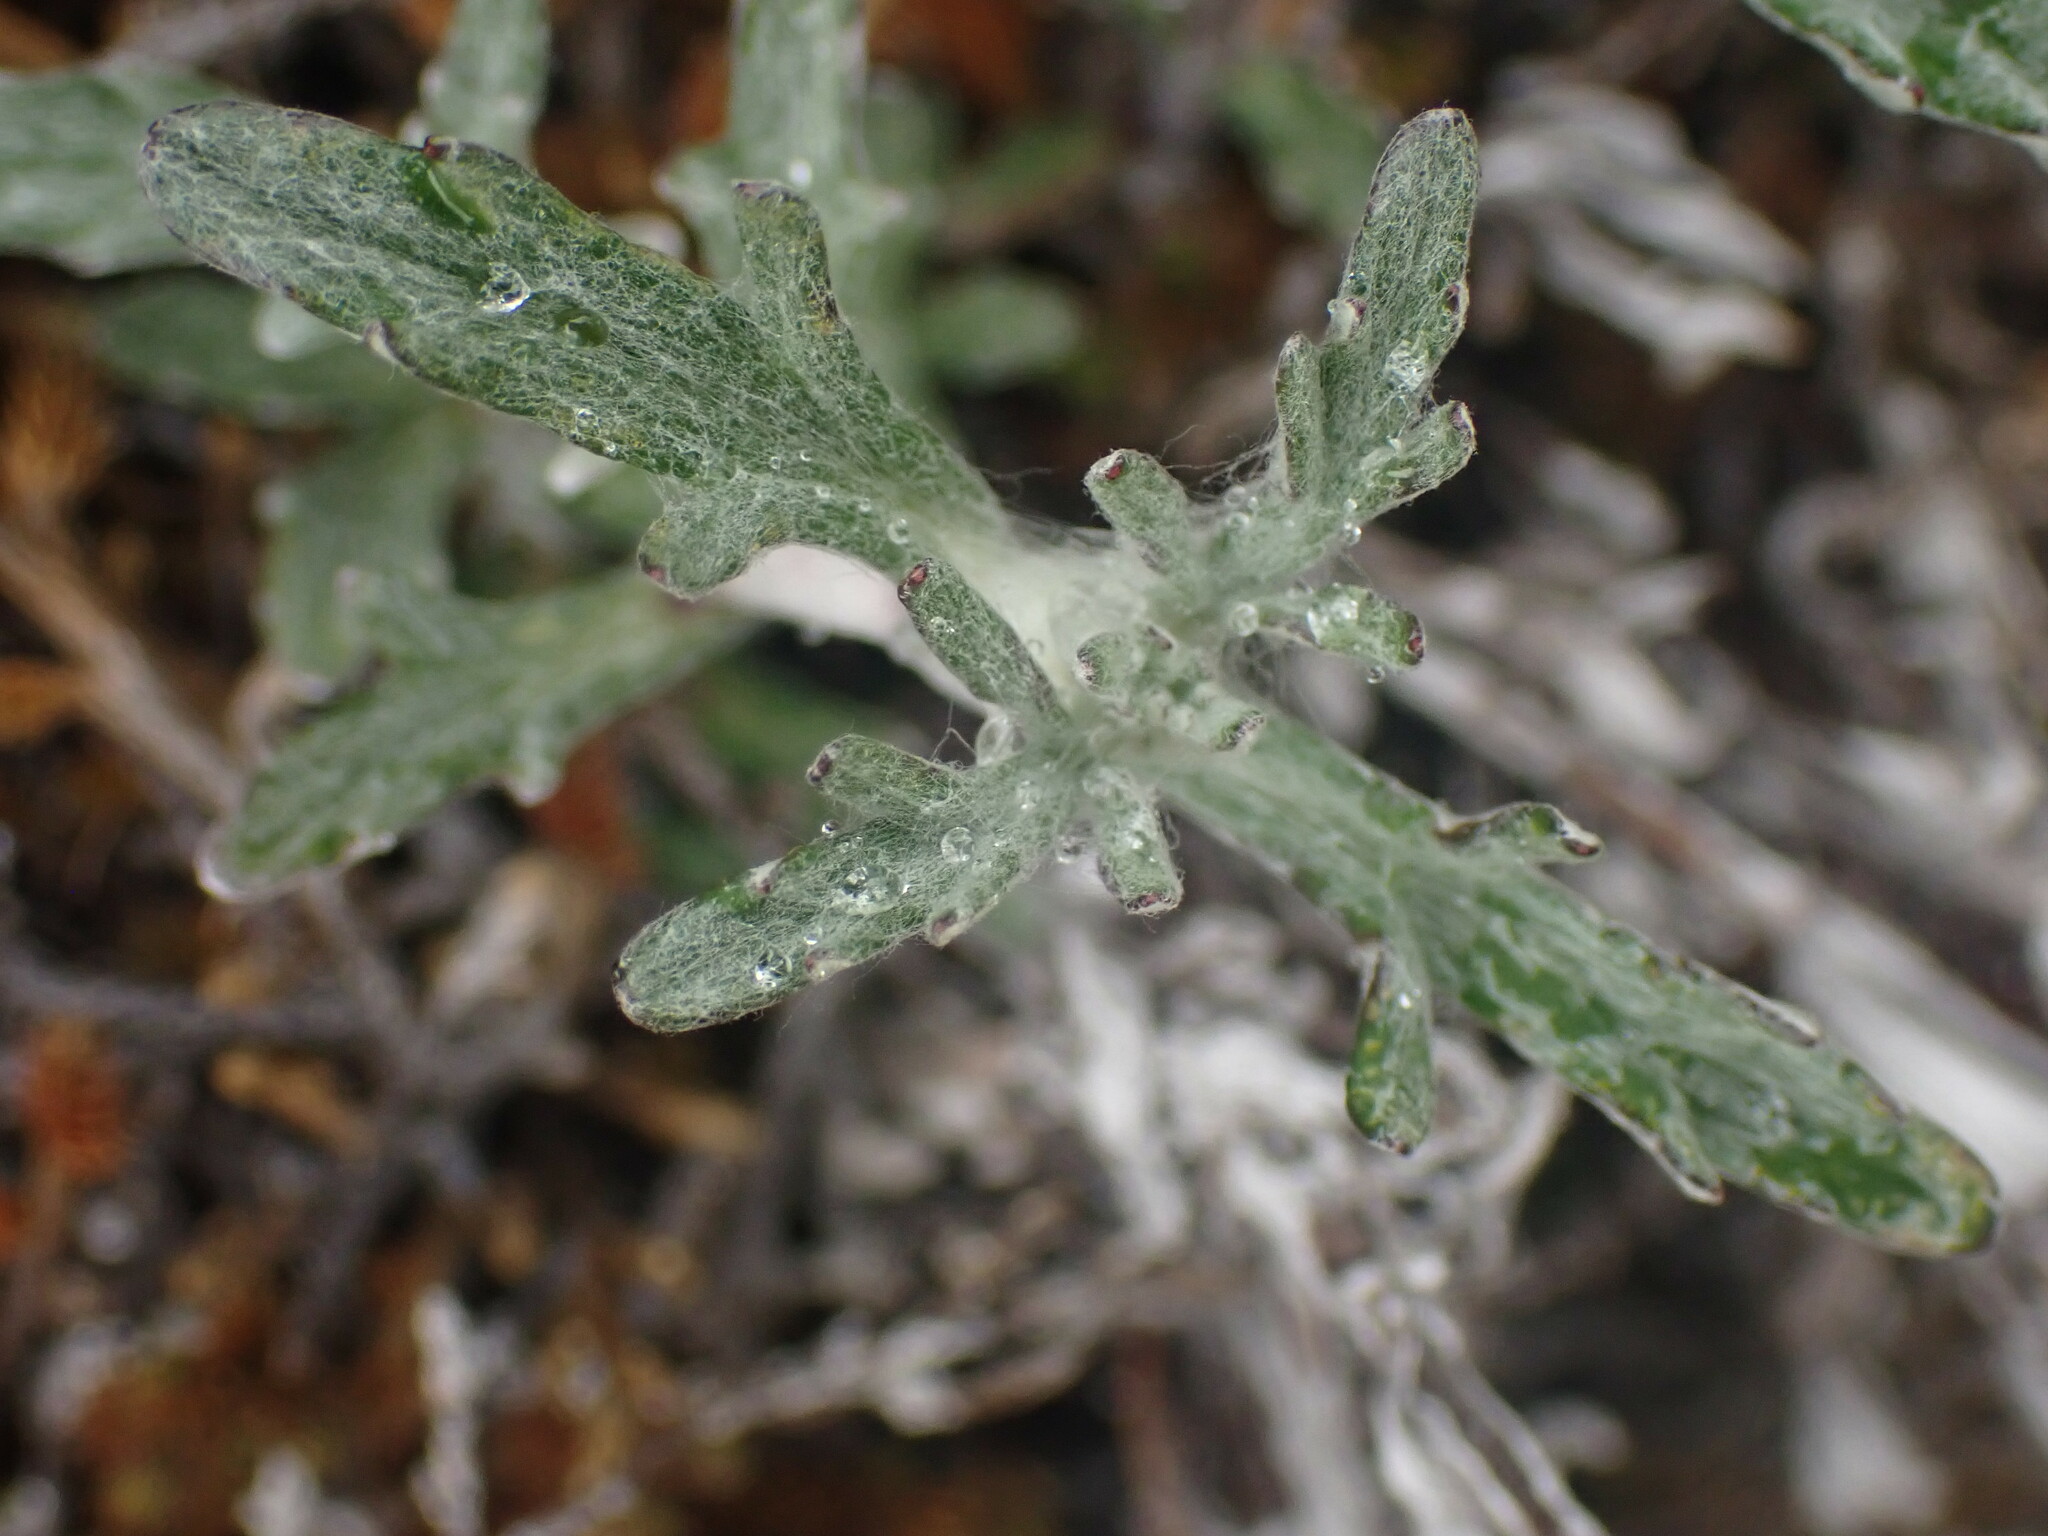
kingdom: Plantae
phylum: Tracheophyta
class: Magnoliopsida
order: Asterales
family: Asteraceae
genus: Eriophyllum
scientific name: Eriophyllum lanatum
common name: Common woolly-sunflower
